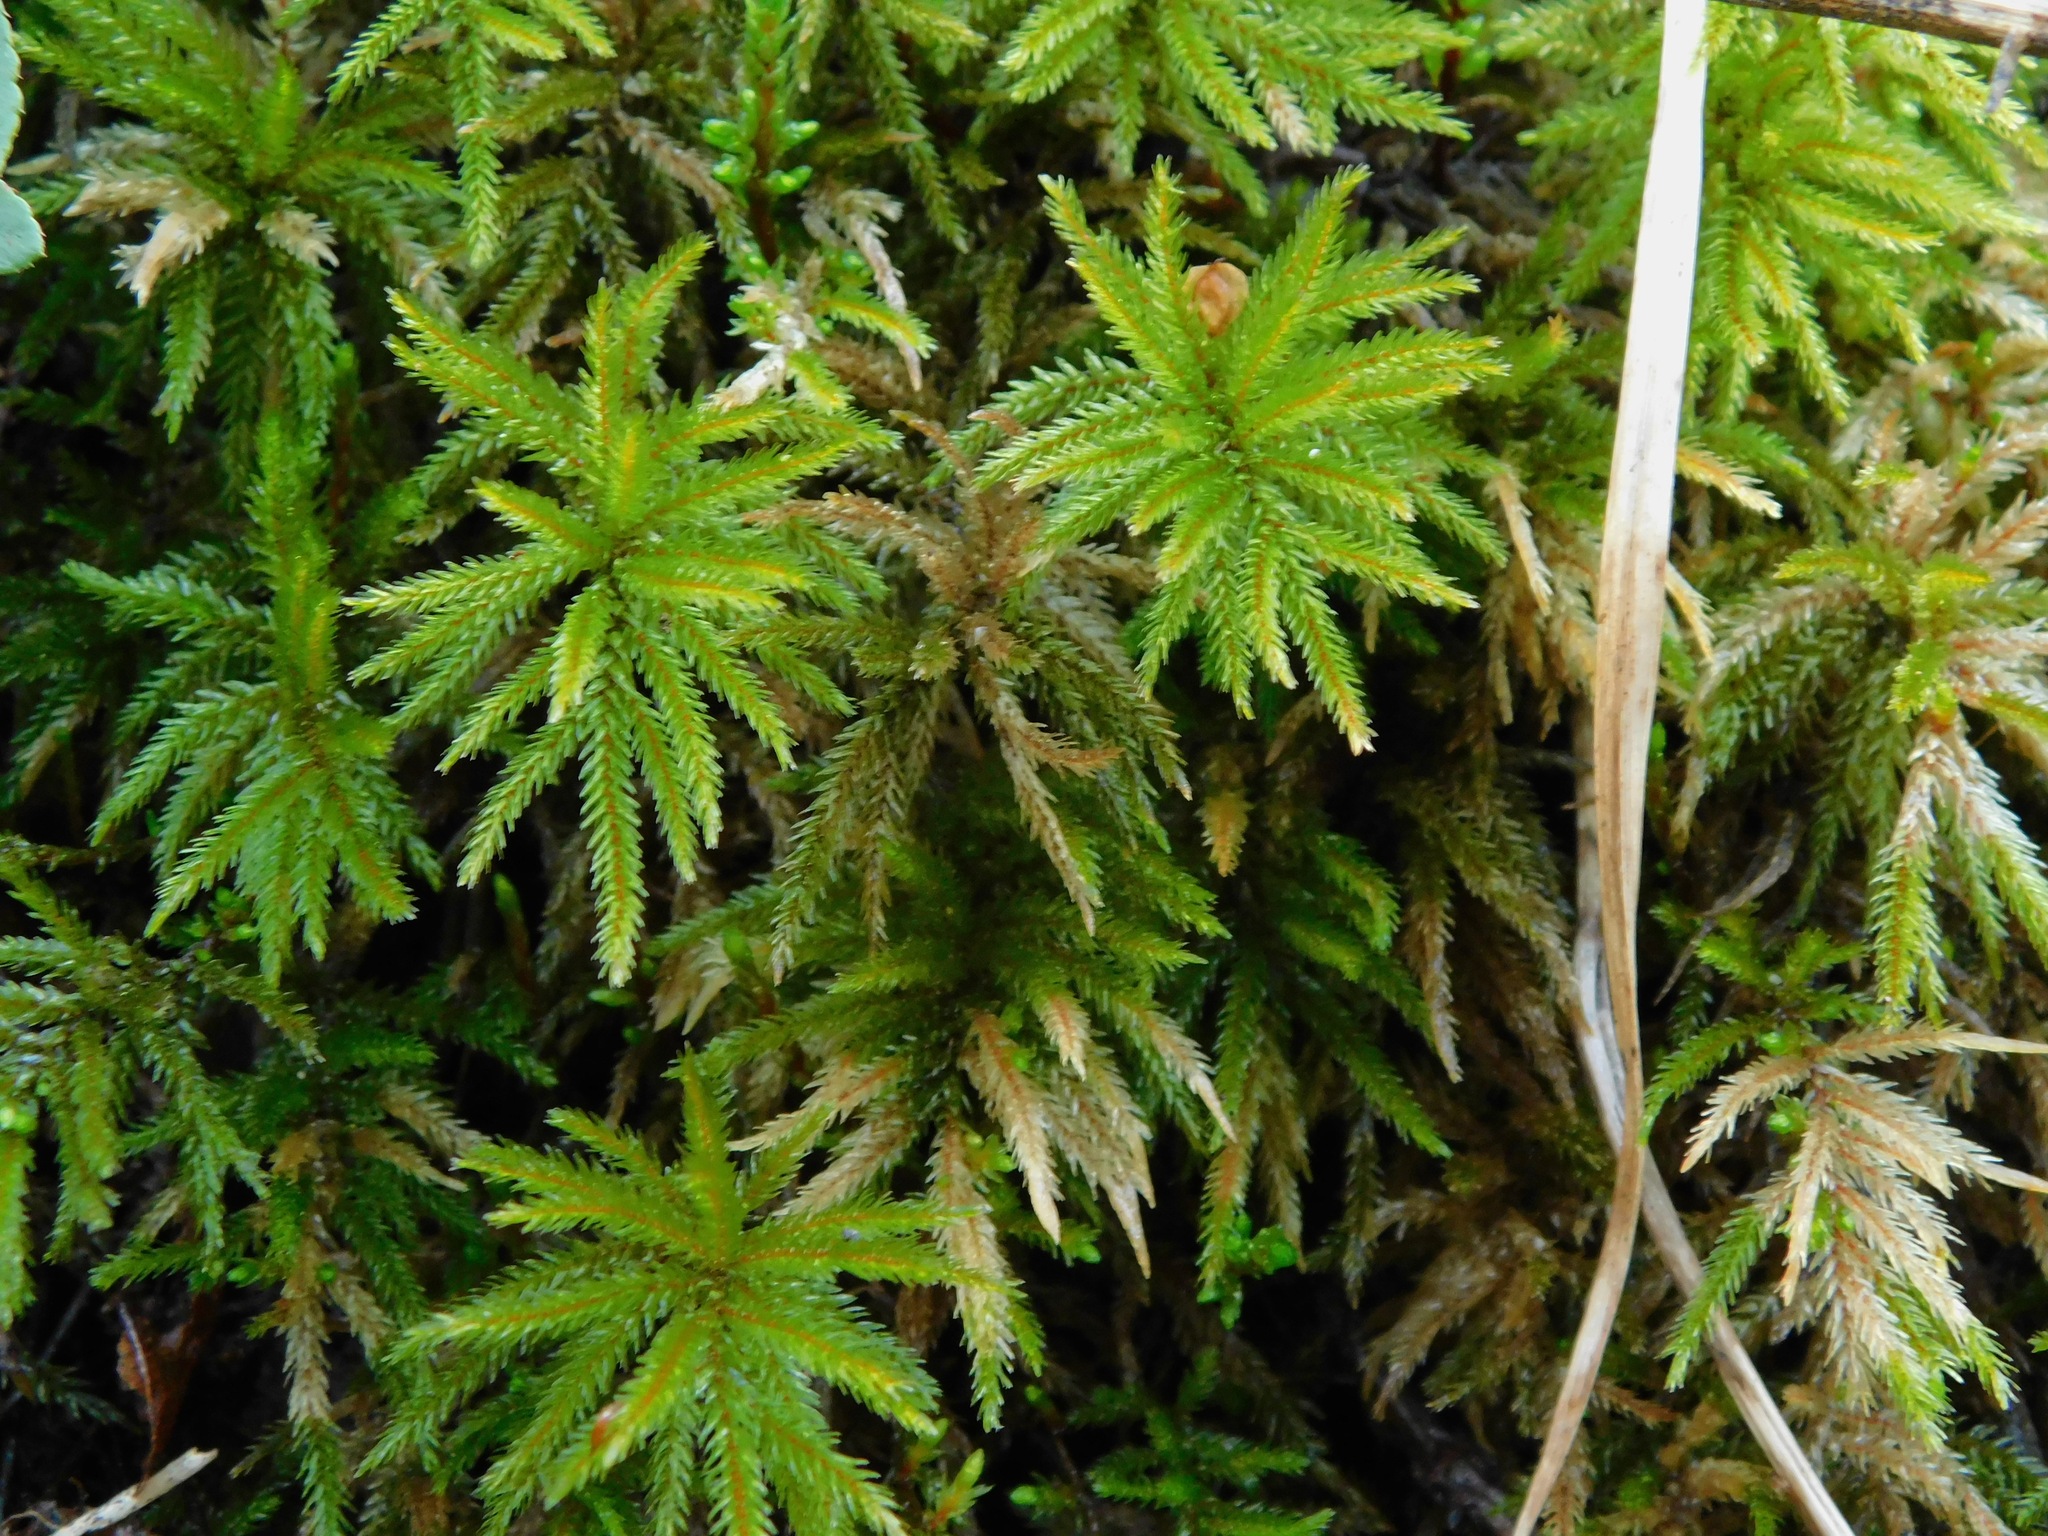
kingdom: Plantae
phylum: Bryophyta
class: Bryopsida
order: Hypnales
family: Climaciaceae
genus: Climacium
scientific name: Climacium americanum
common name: American tree moss
